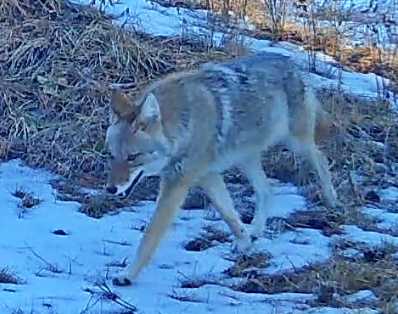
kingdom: Animalia
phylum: Chordata
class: Mammalia
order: Carnivora
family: Canidae
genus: Canis
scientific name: Canis latrans
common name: Coyote
